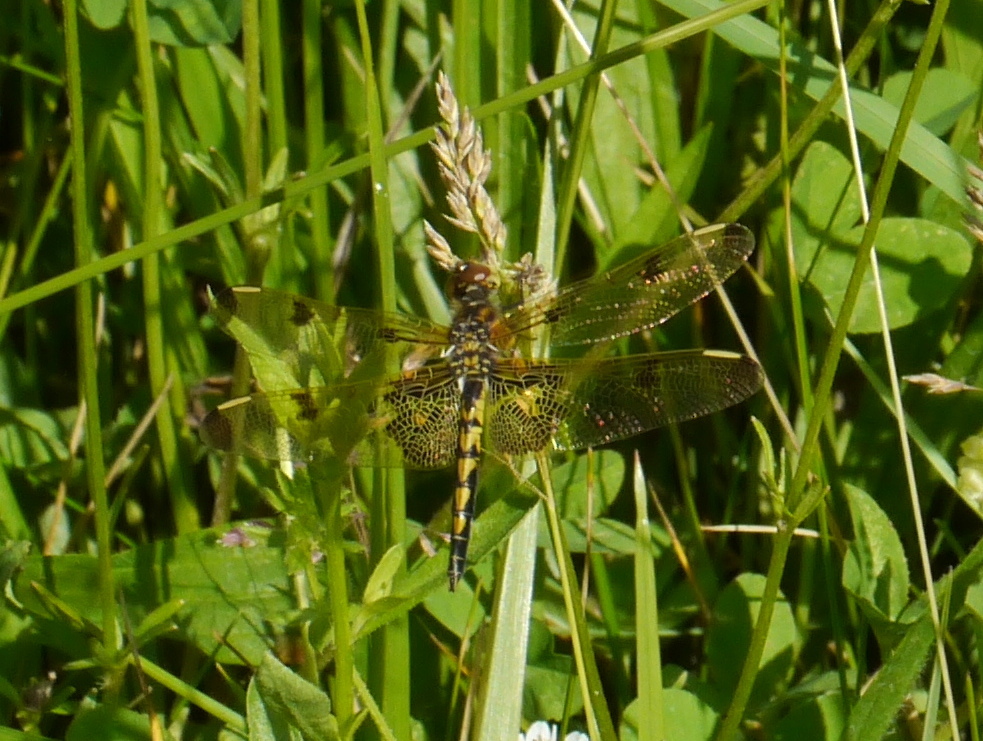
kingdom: Animalia
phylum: Arthropoda
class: Insecta
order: Odonata
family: Libellulidae
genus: Celithemis
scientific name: Celithemis elisa
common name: Calico pennant
